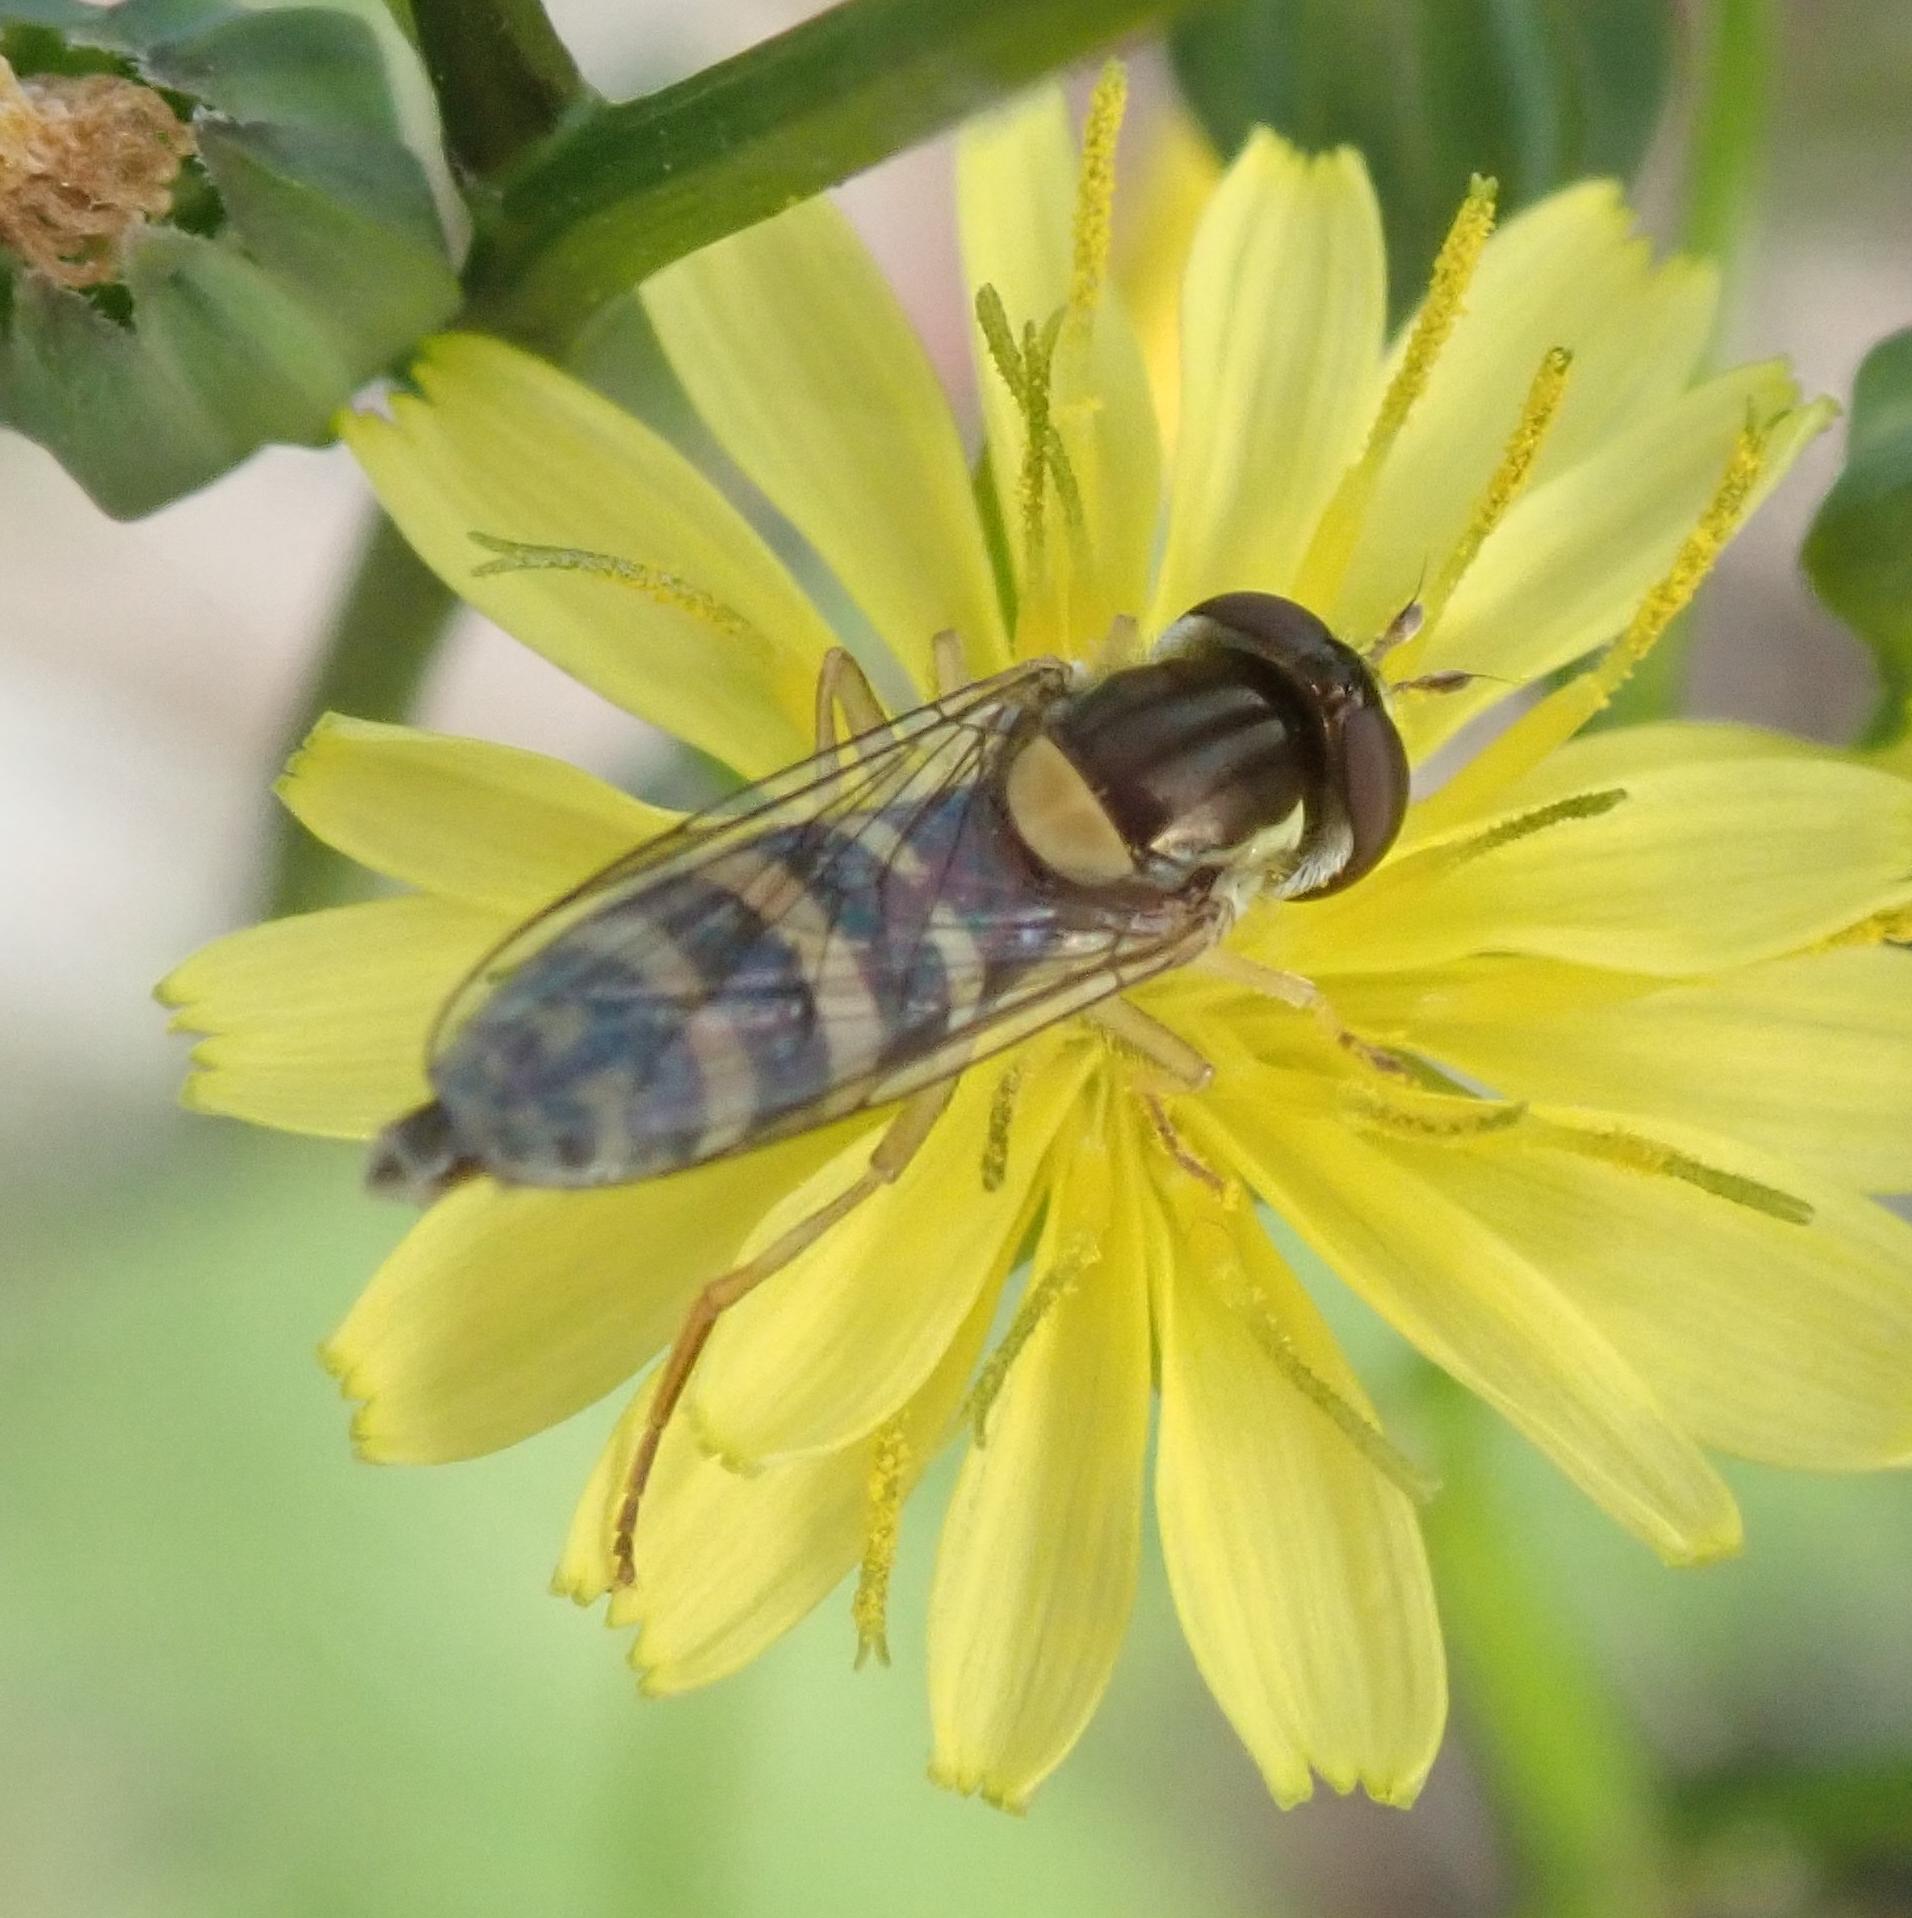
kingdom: Animalia
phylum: Arthropoda
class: Insecta
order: Diptera
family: Syrphidae
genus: Sphaerophoria
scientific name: Sphaerophoria
